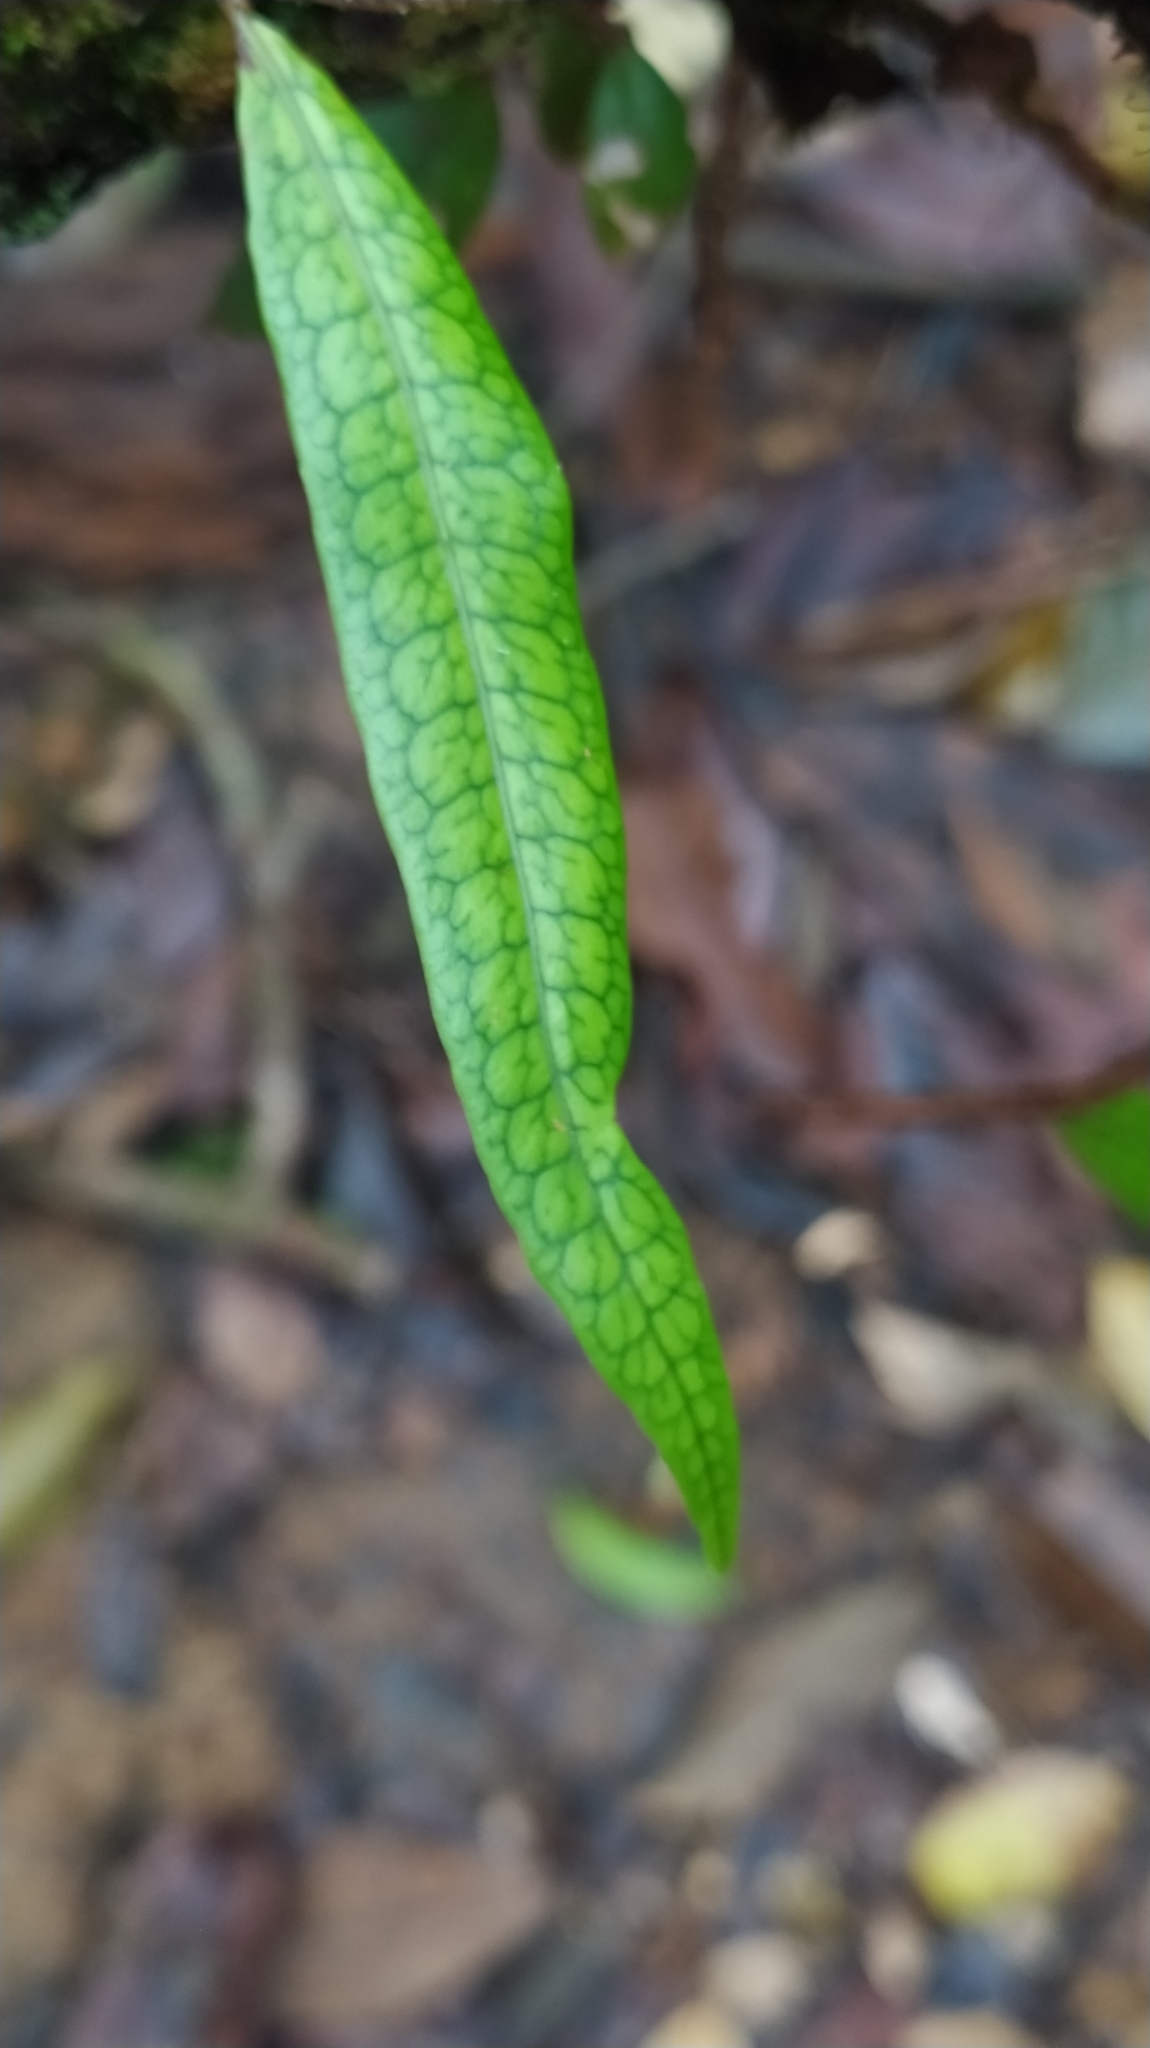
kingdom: Plantae
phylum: Tracheophyta
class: Polypodiopsida
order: Polypodiales
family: Polypodiaceae
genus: Microgramma
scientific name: Microgramma lycopodioides
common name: Bastard catclaw
